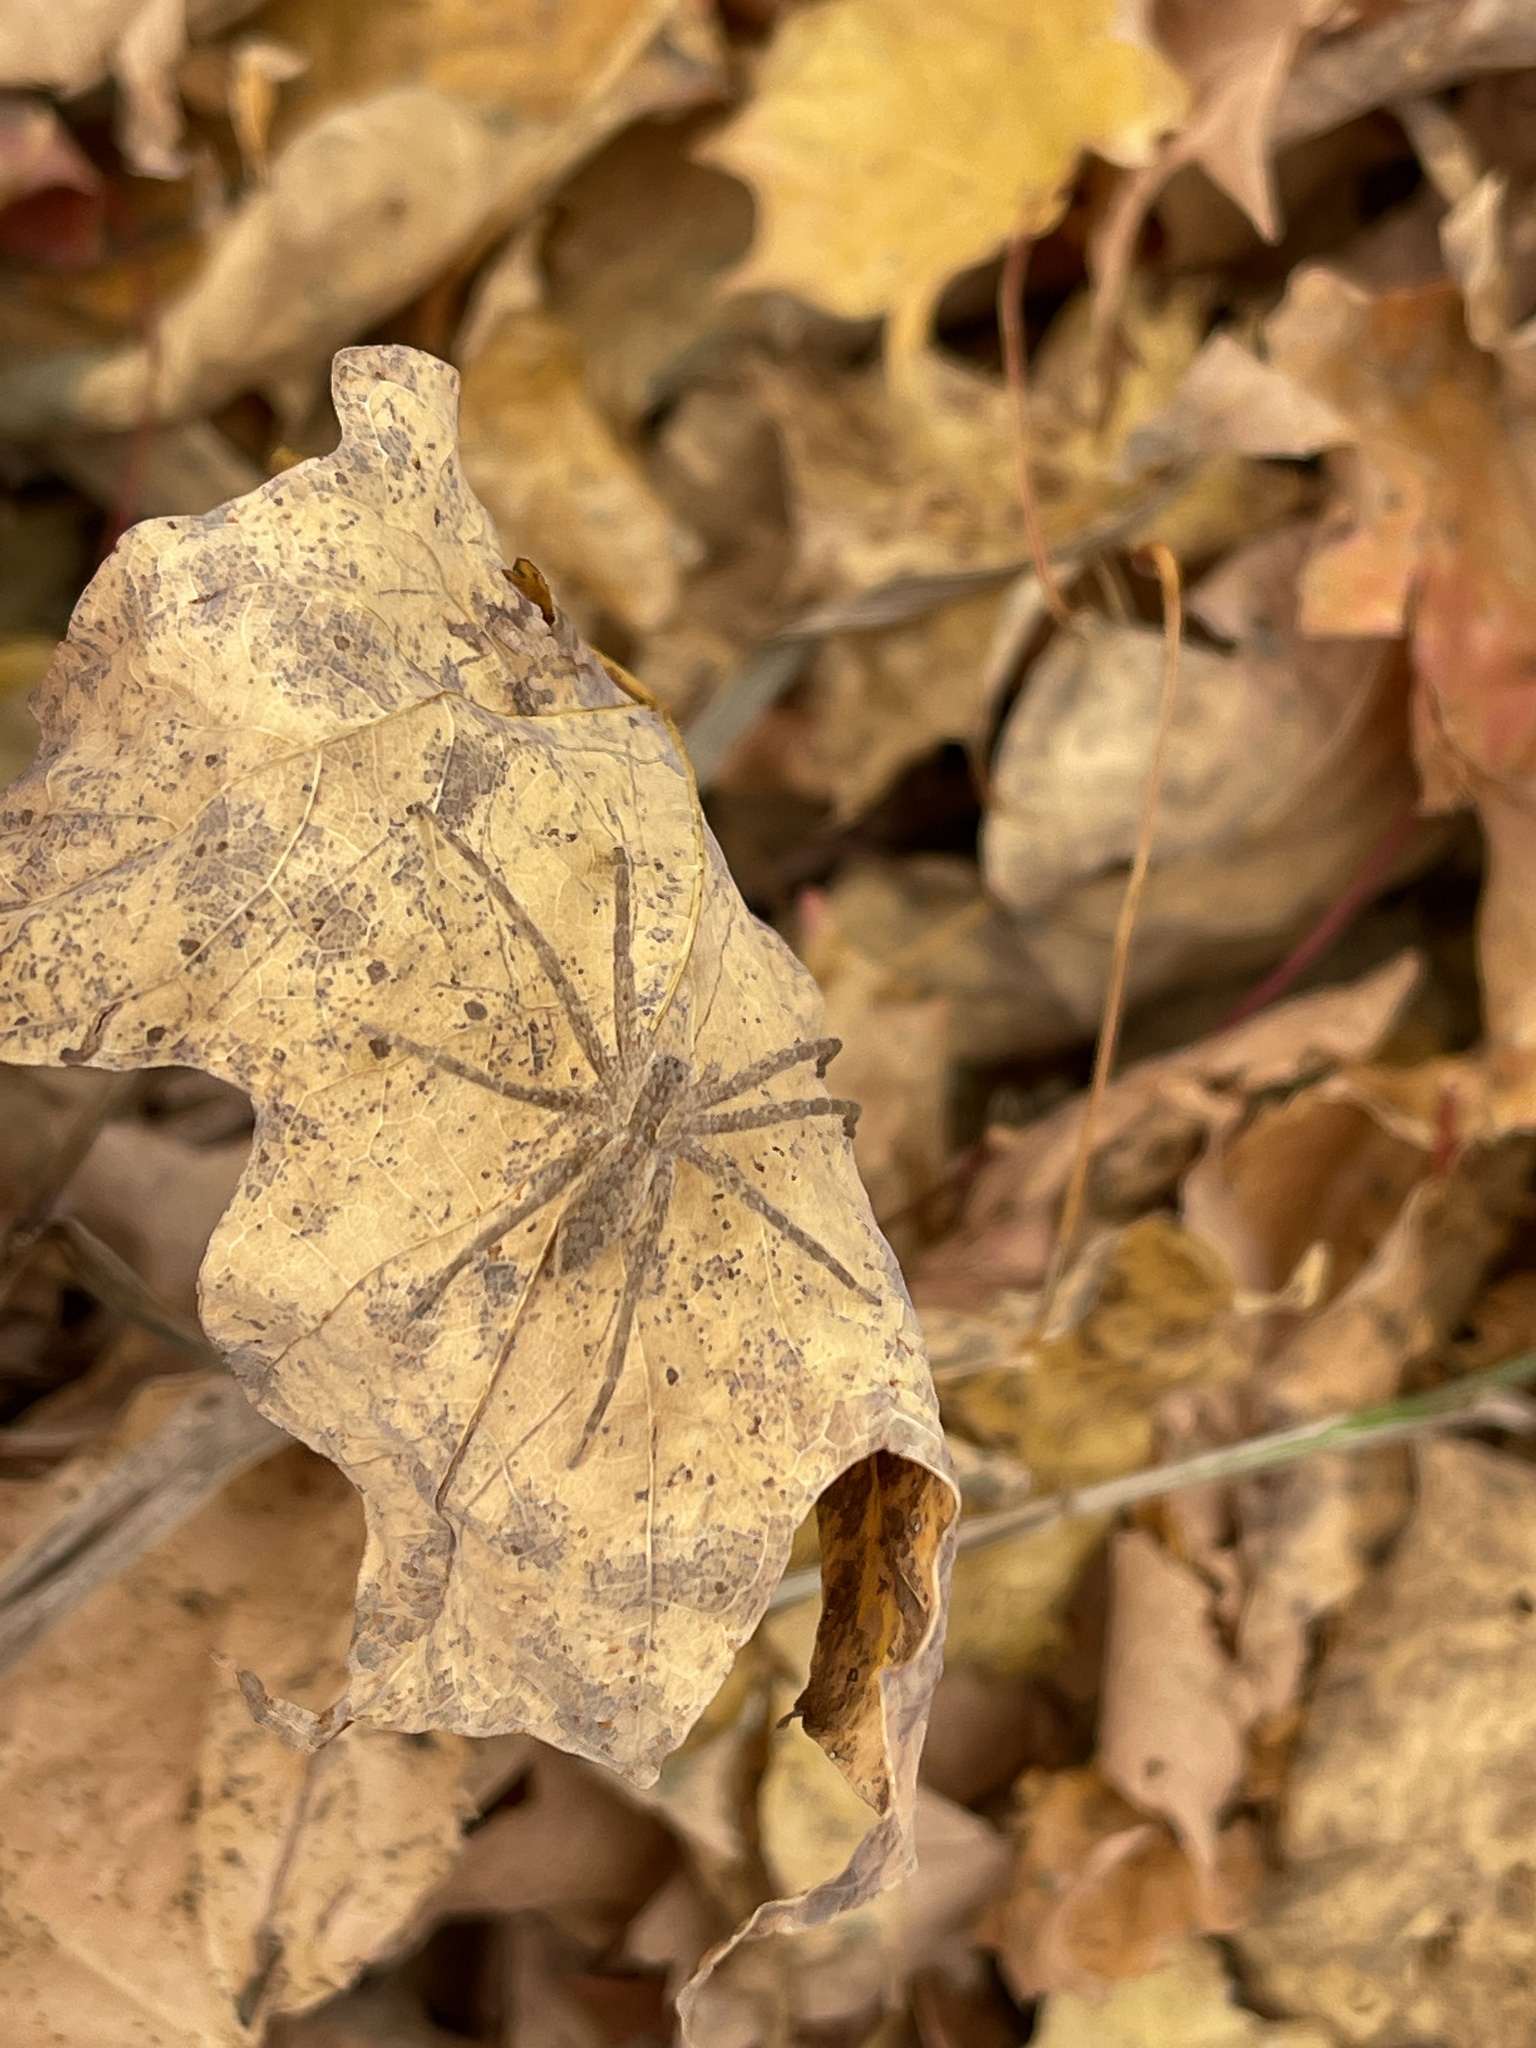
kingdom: Animalia
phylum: Arthropoda
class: Arachnida
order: Araneae
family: Pisauridae
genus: Pisaurina
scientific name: Pisaurina mira
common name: American nursery web spider
